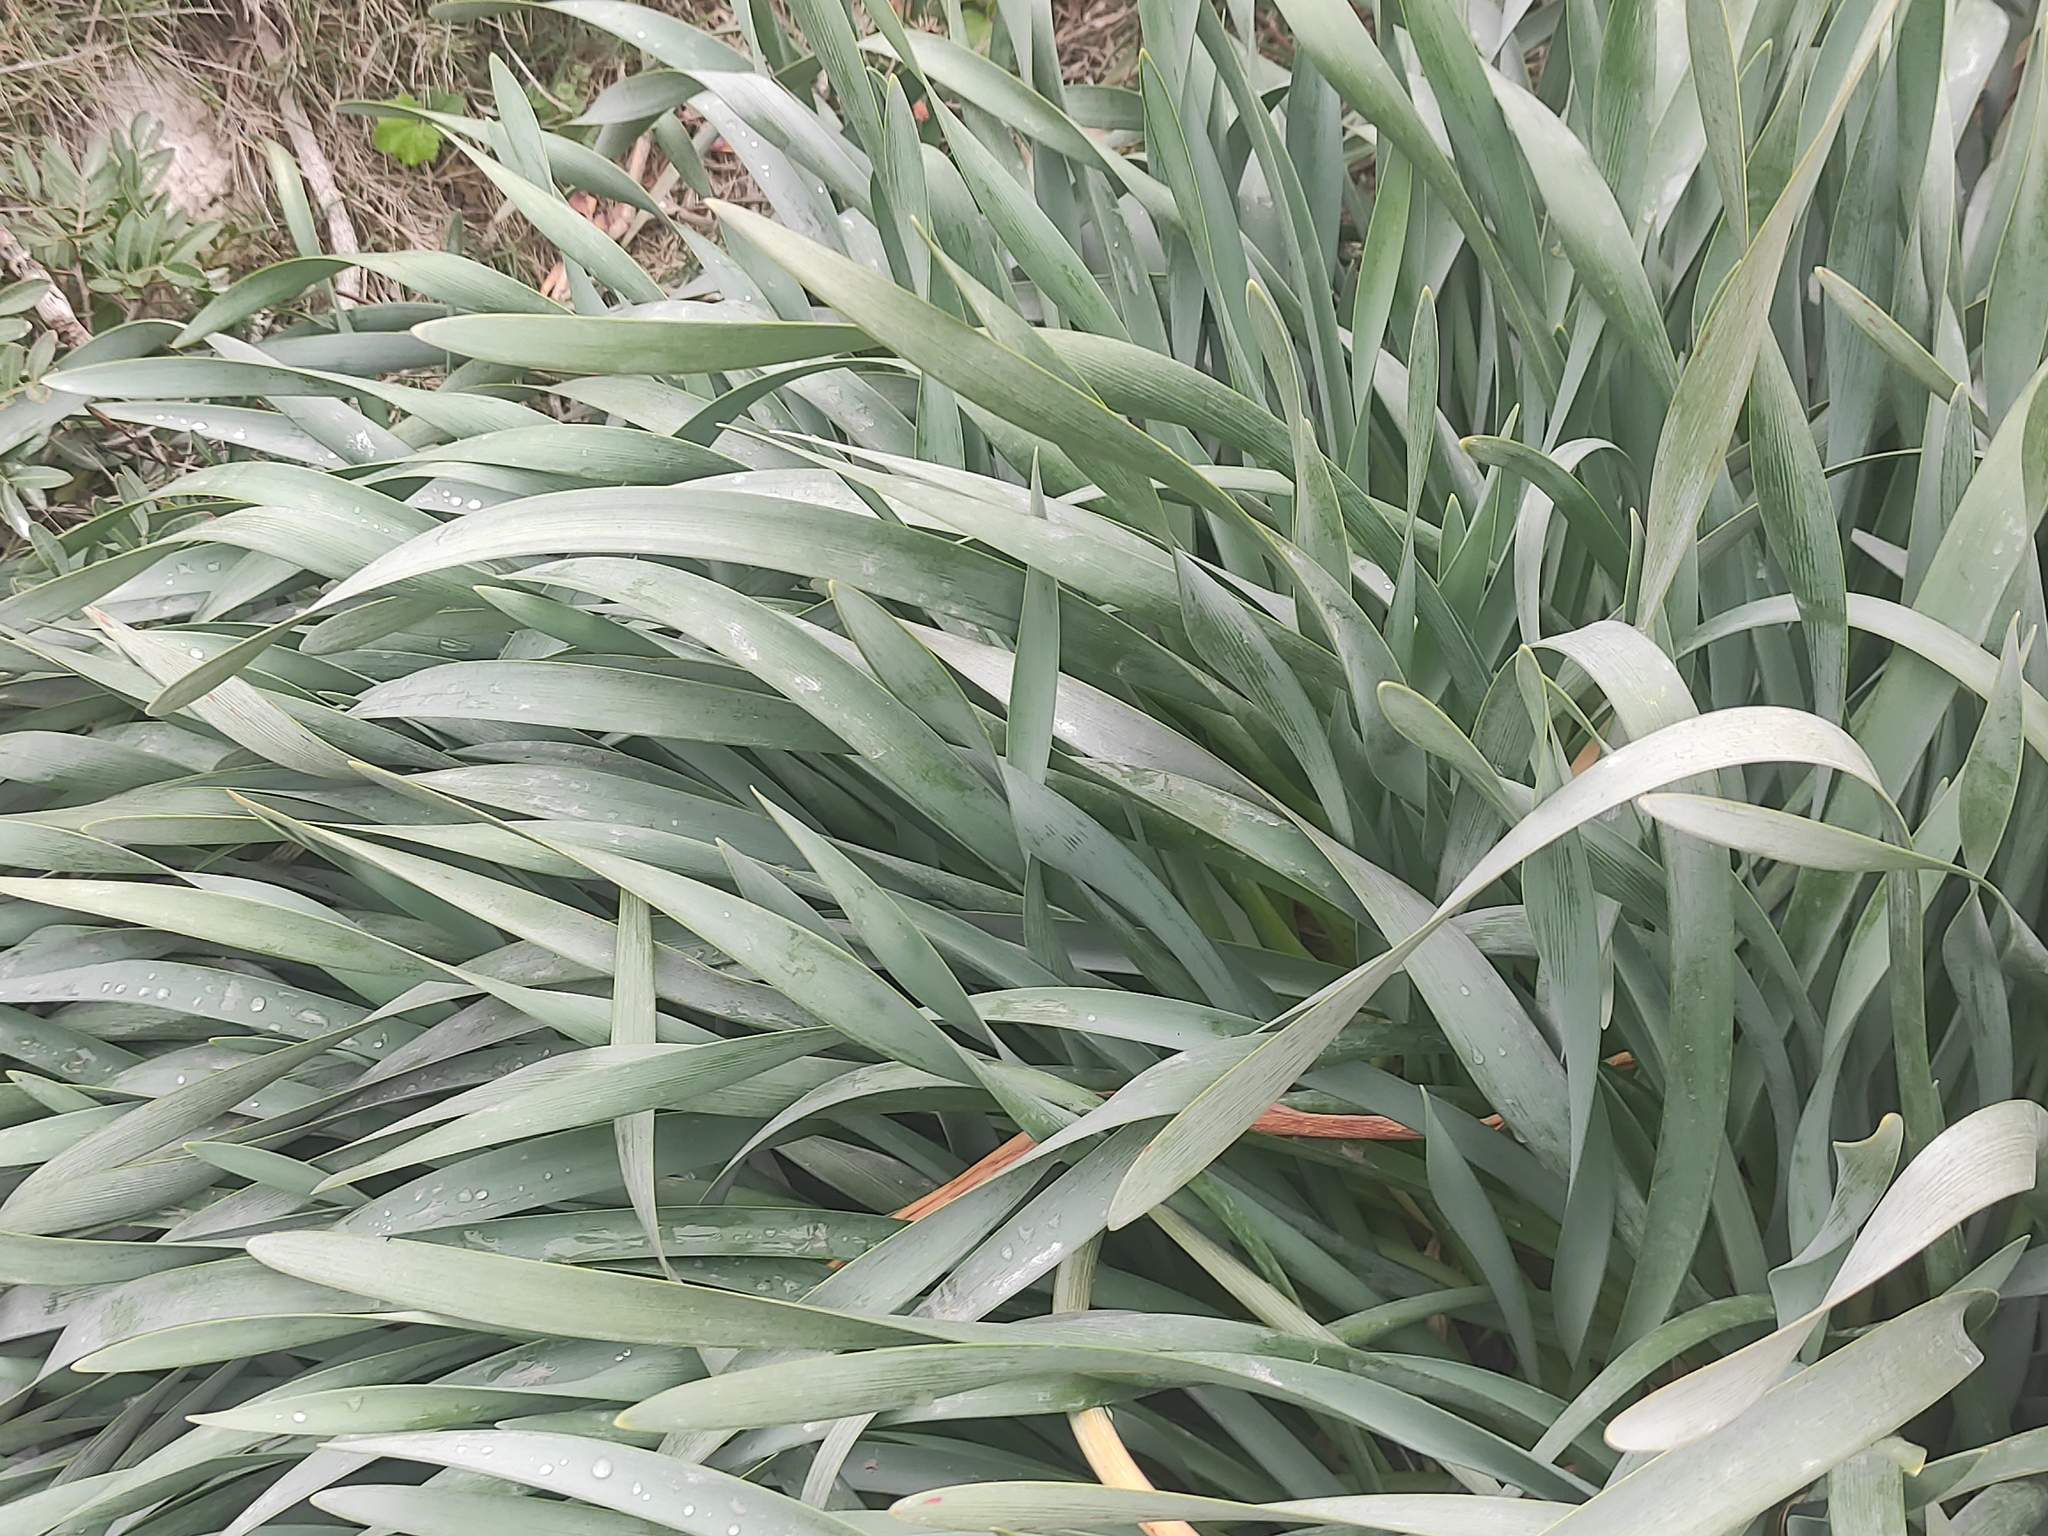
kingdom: Plantae
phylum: Tracheophyta
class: Liliopsida
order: Asparagales
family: Amaryllidaceae
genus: Pancratium
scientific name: Pancratium maritimum
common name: Sea-daffodil
